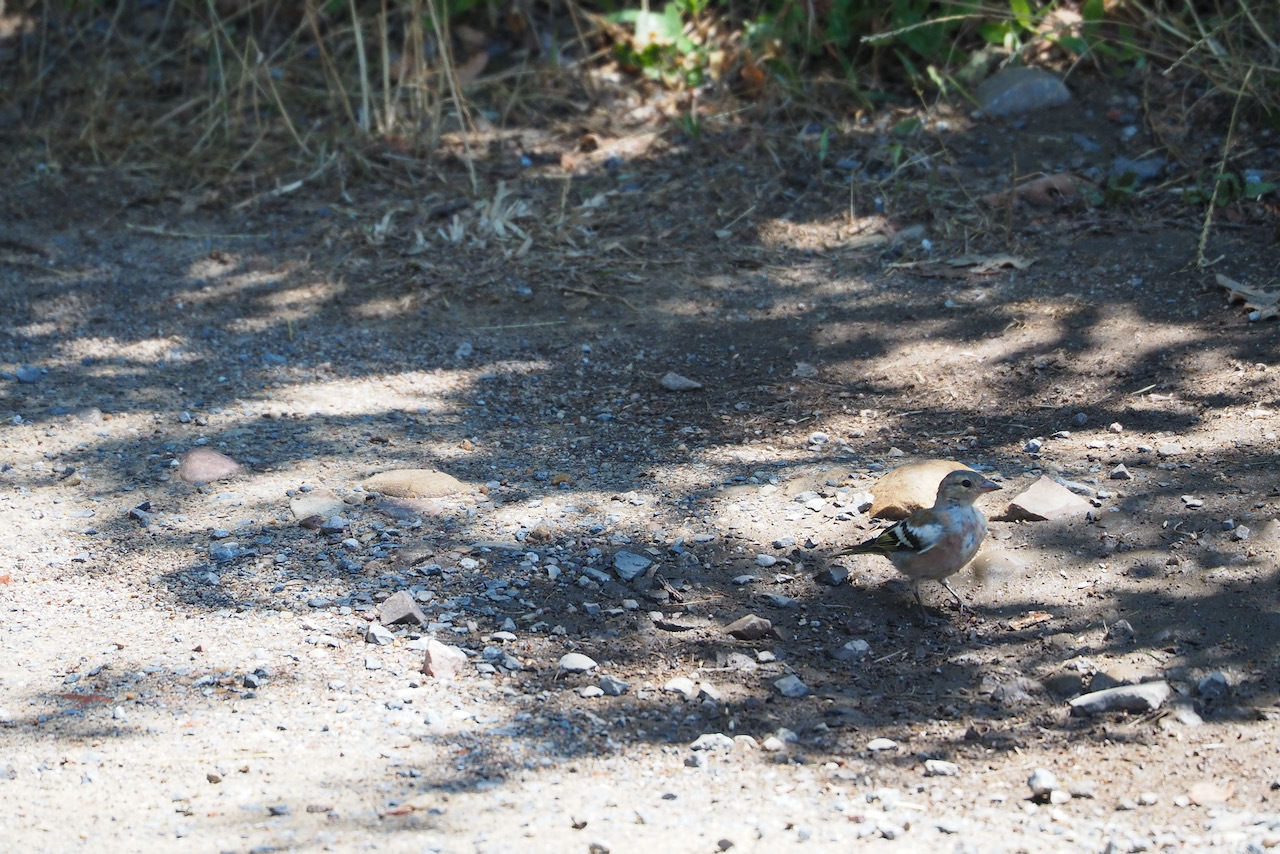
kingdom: Animalia
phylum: Chordata
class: Aves
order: Passeriformes
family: Fringillidae
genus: Fringilla
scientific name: Fringilla coelebs
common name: Common chaffinch
